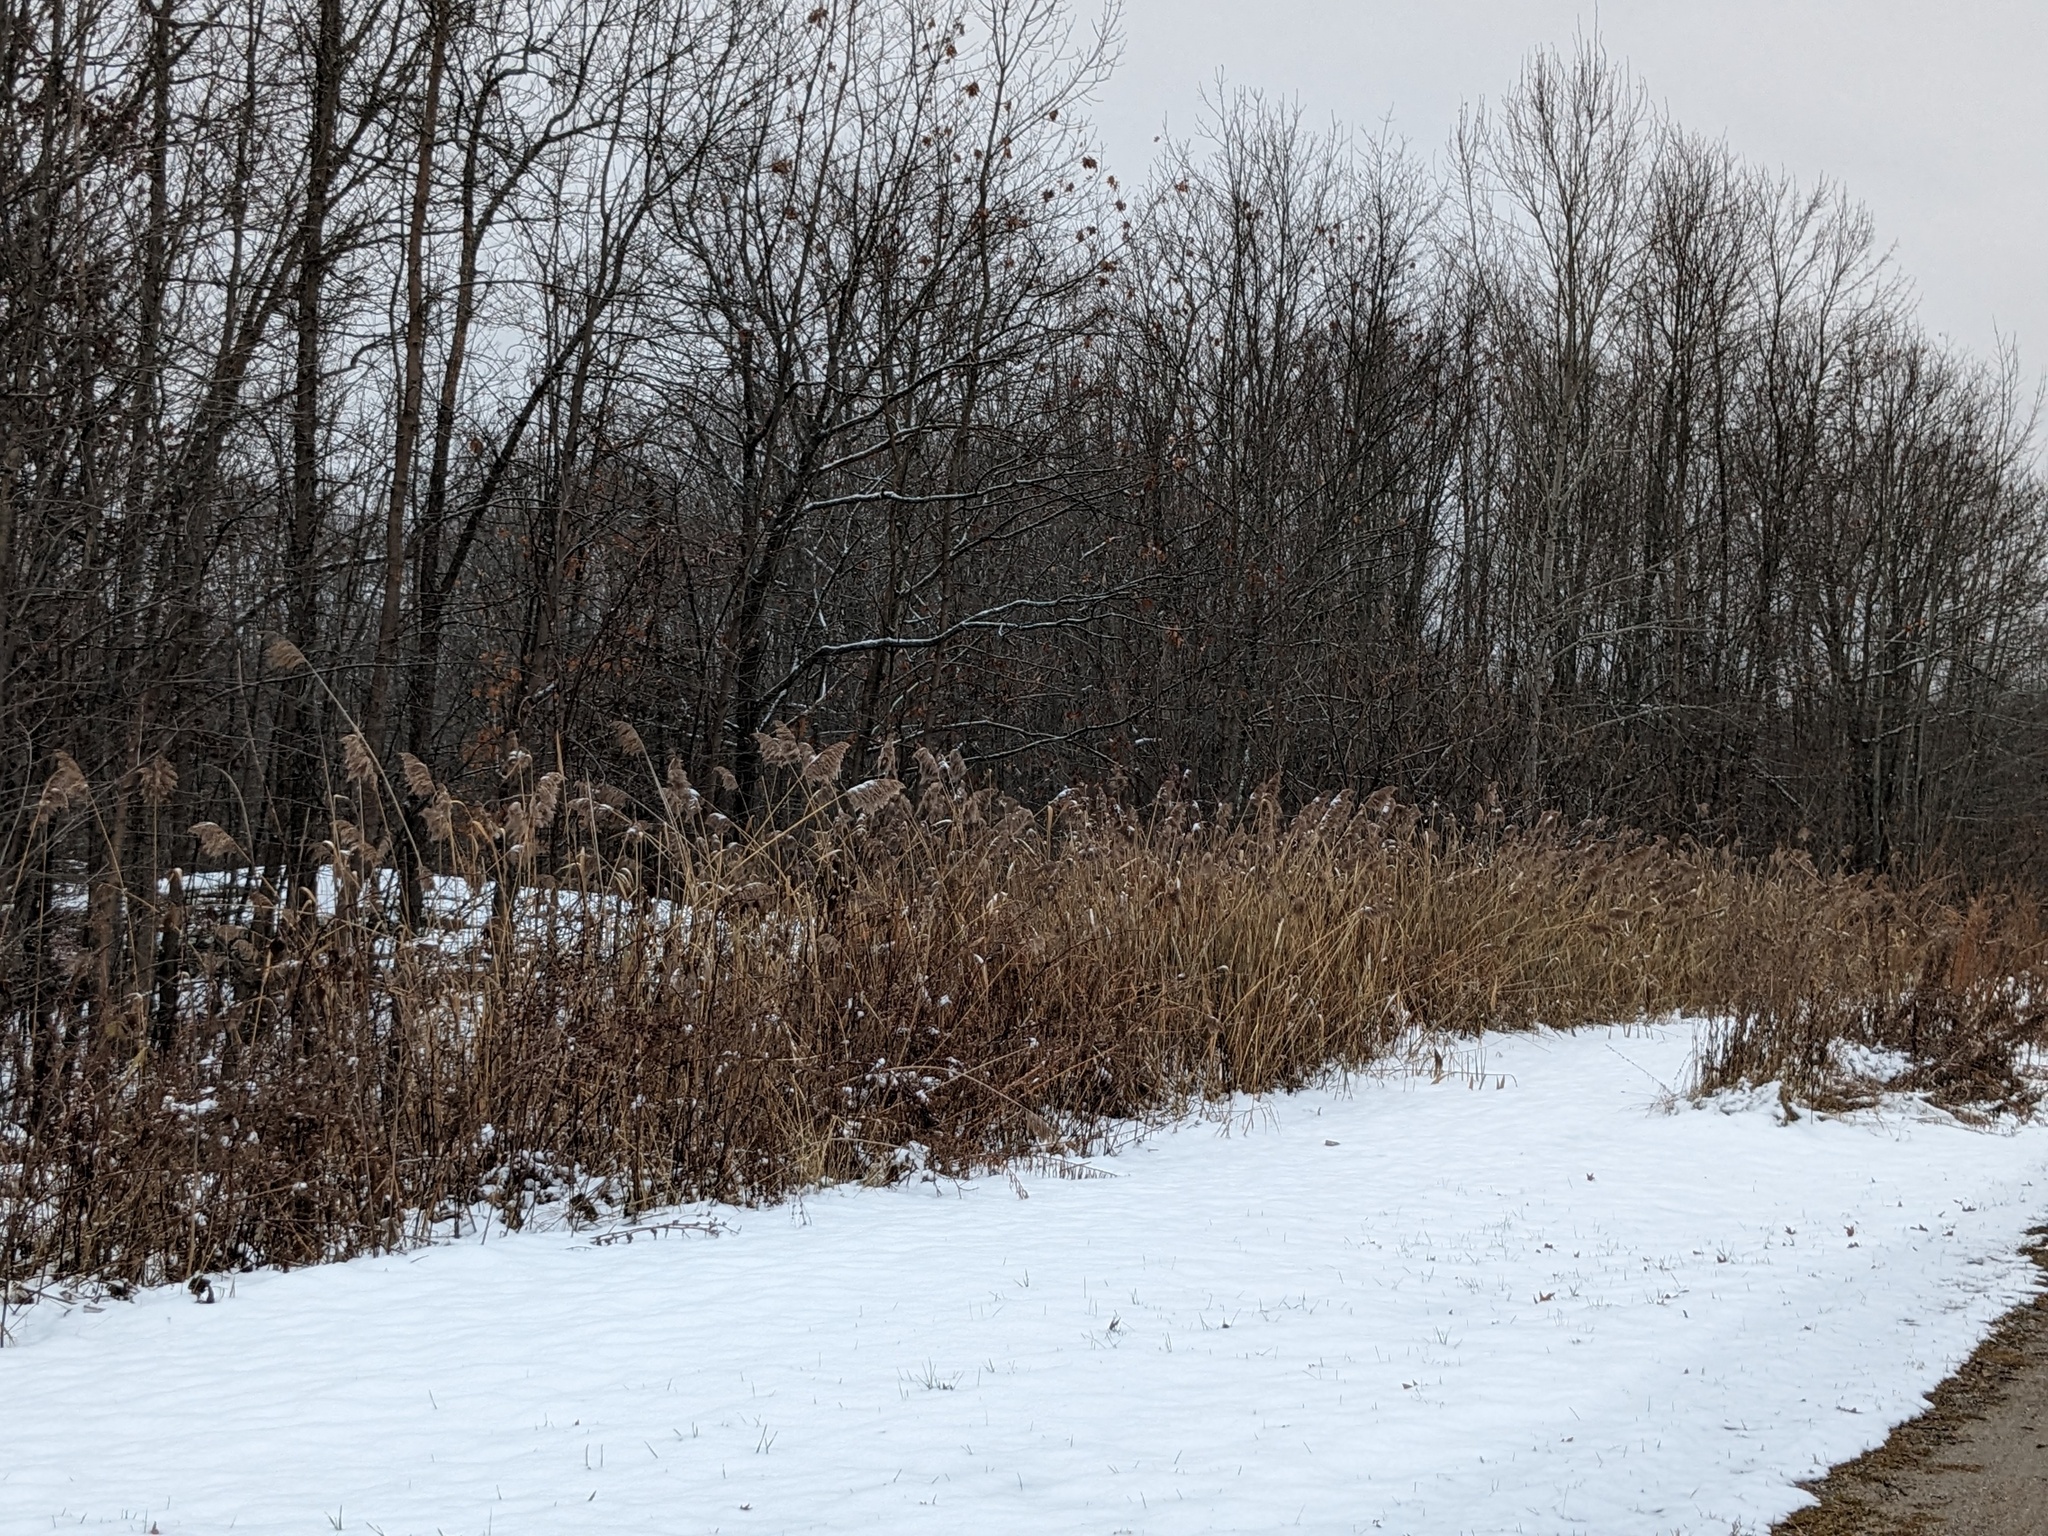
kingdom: Plantae
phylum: Tracheophyta
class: Liliopsida
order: Poales
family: Poaceae
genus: Phragmites
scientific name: Phragmites australis
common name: Common reed
